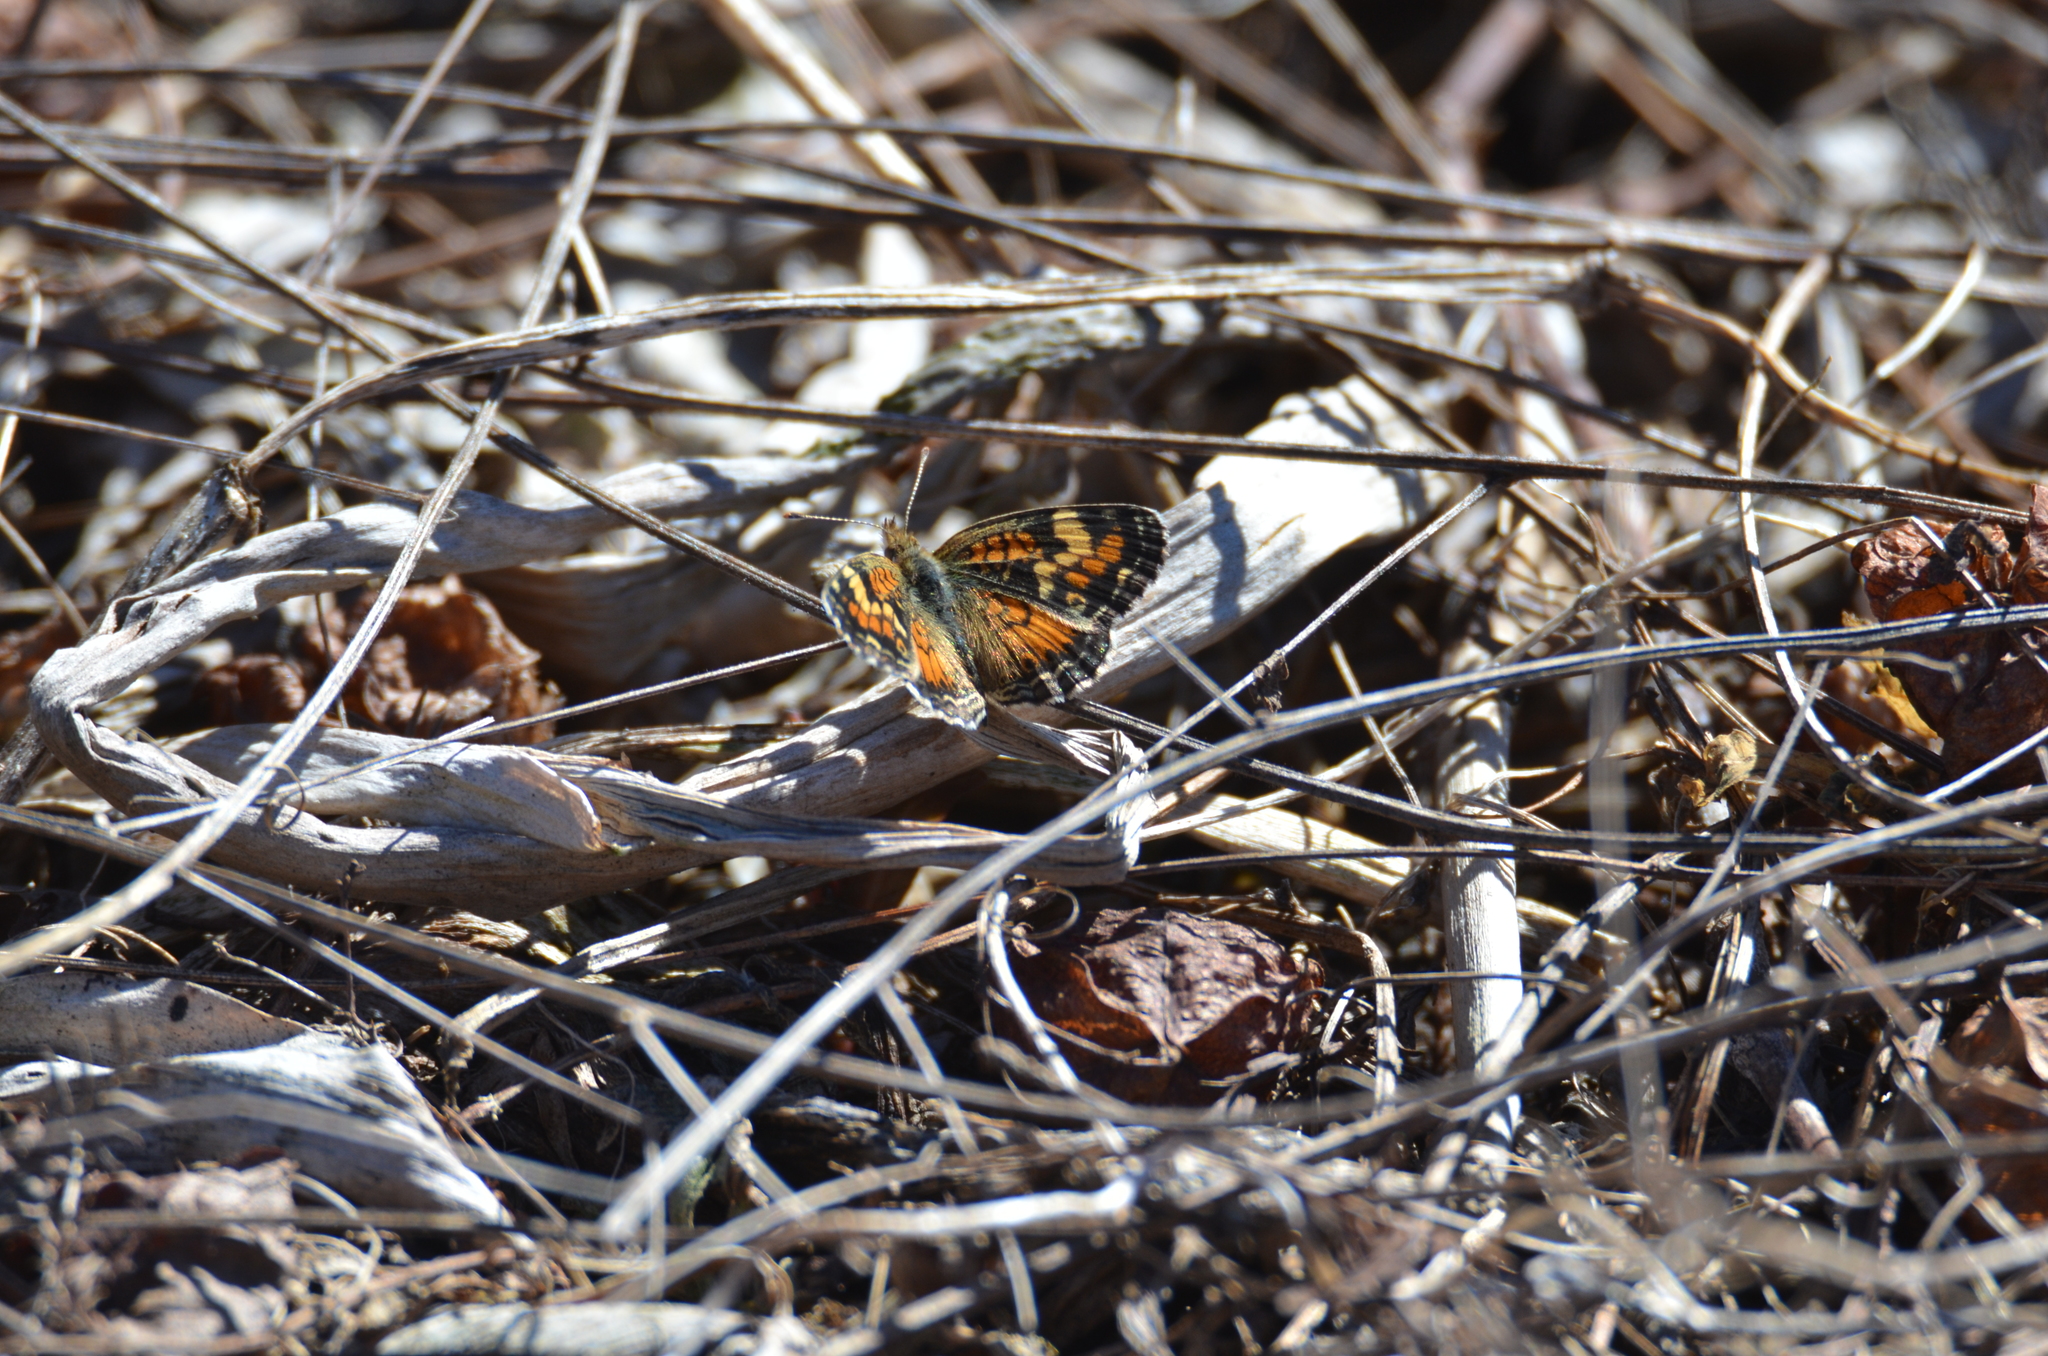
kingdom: Animalia
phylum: Arthropoda
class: Insecta
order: Lepidoptera
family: Nymphalidae
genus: Phyciodes
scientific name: Phyciodes phaon
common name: Phaon crescent
